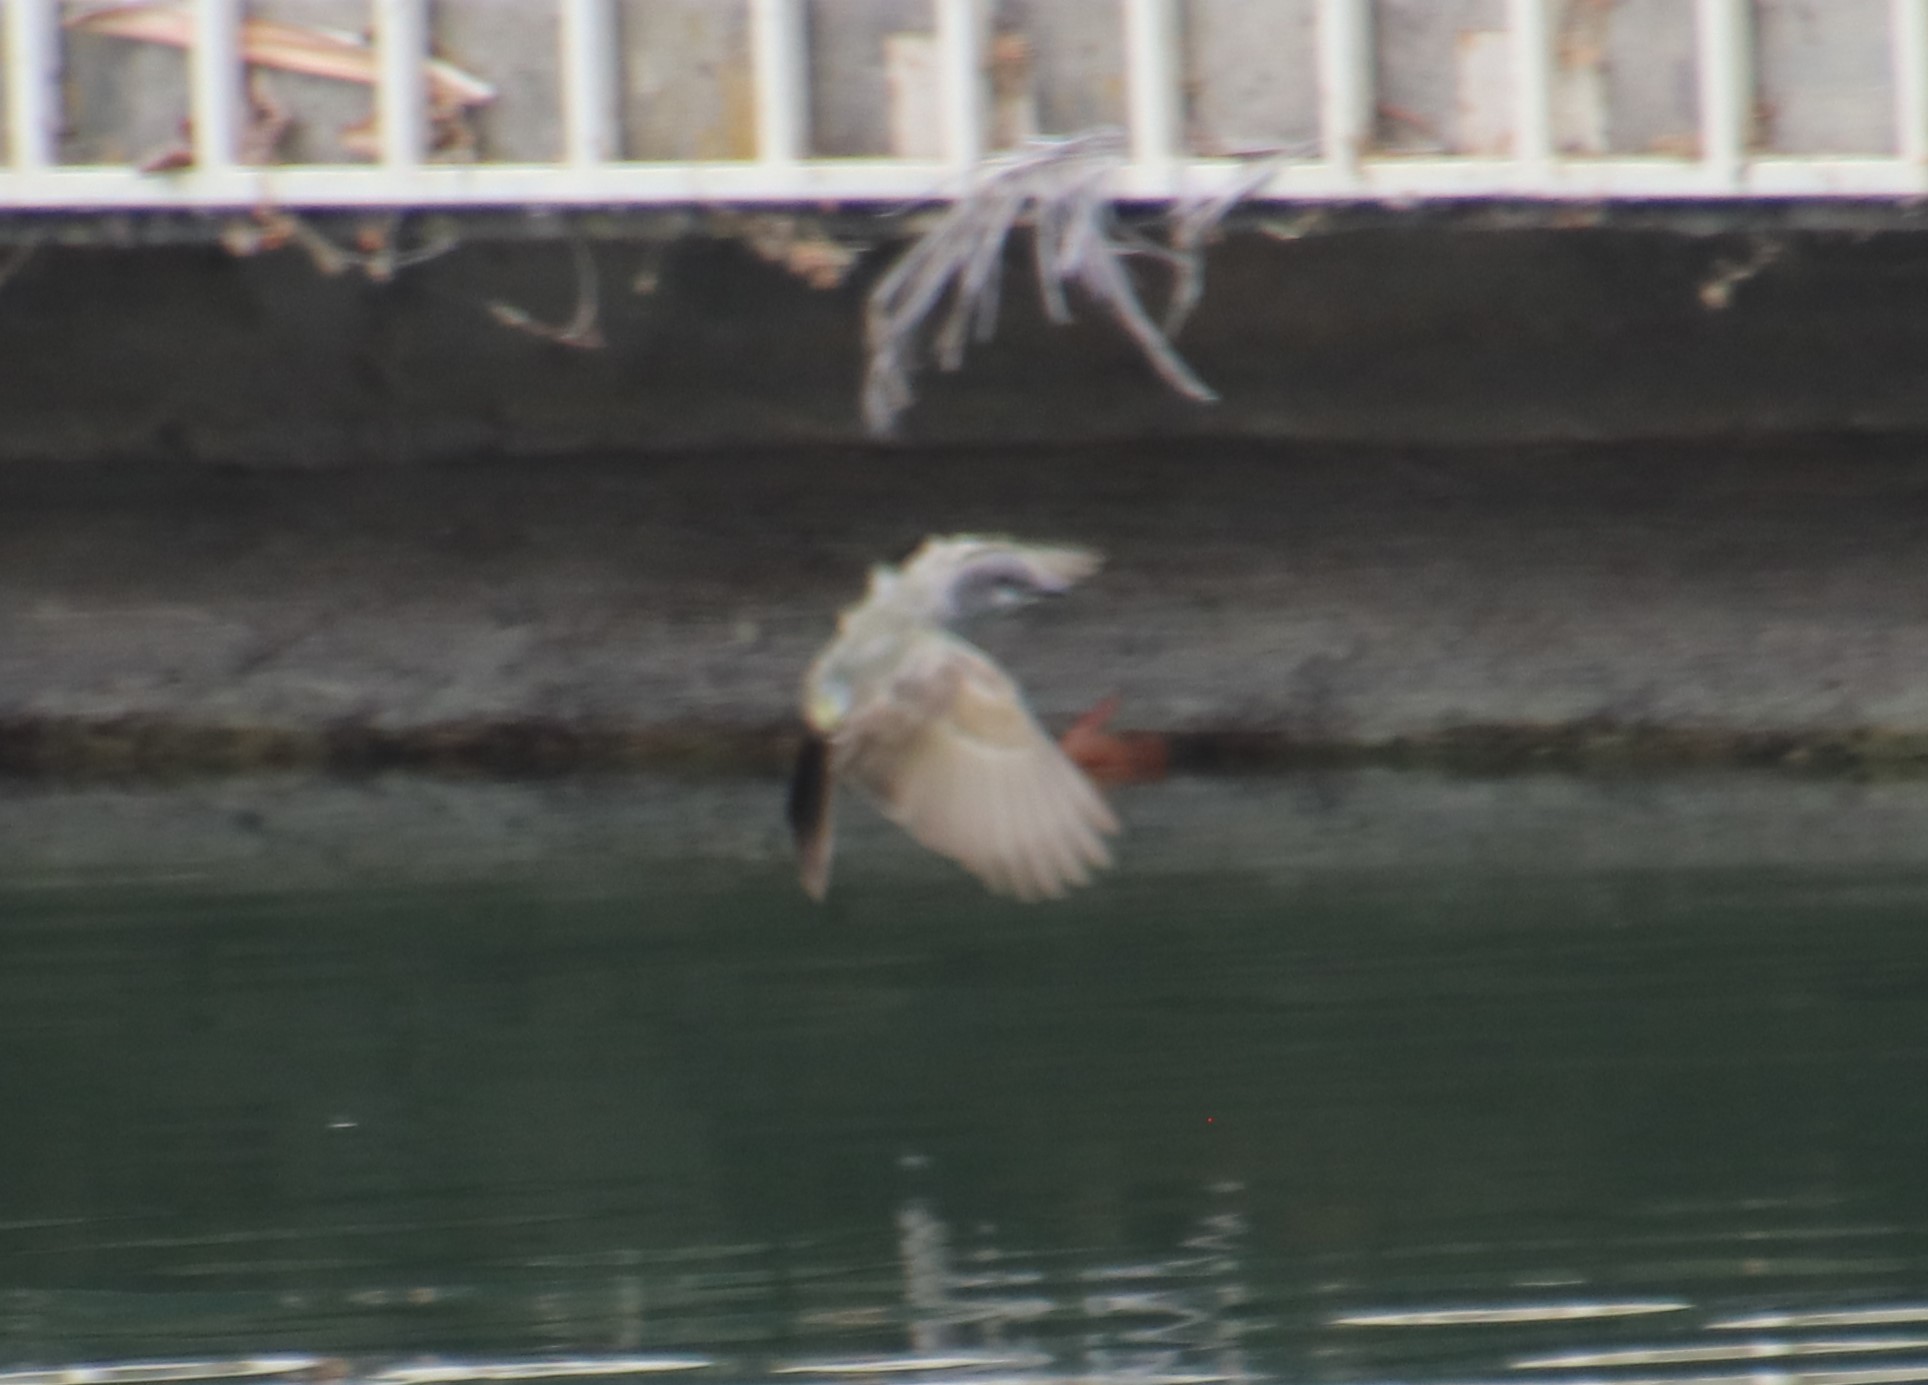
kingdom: Animalia
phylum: Chordata
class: Aves
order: Passeriformes
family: Tyrannidae
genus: Tyrannus
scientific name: Tyrannus vociferans
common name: Cassin's kingbird
